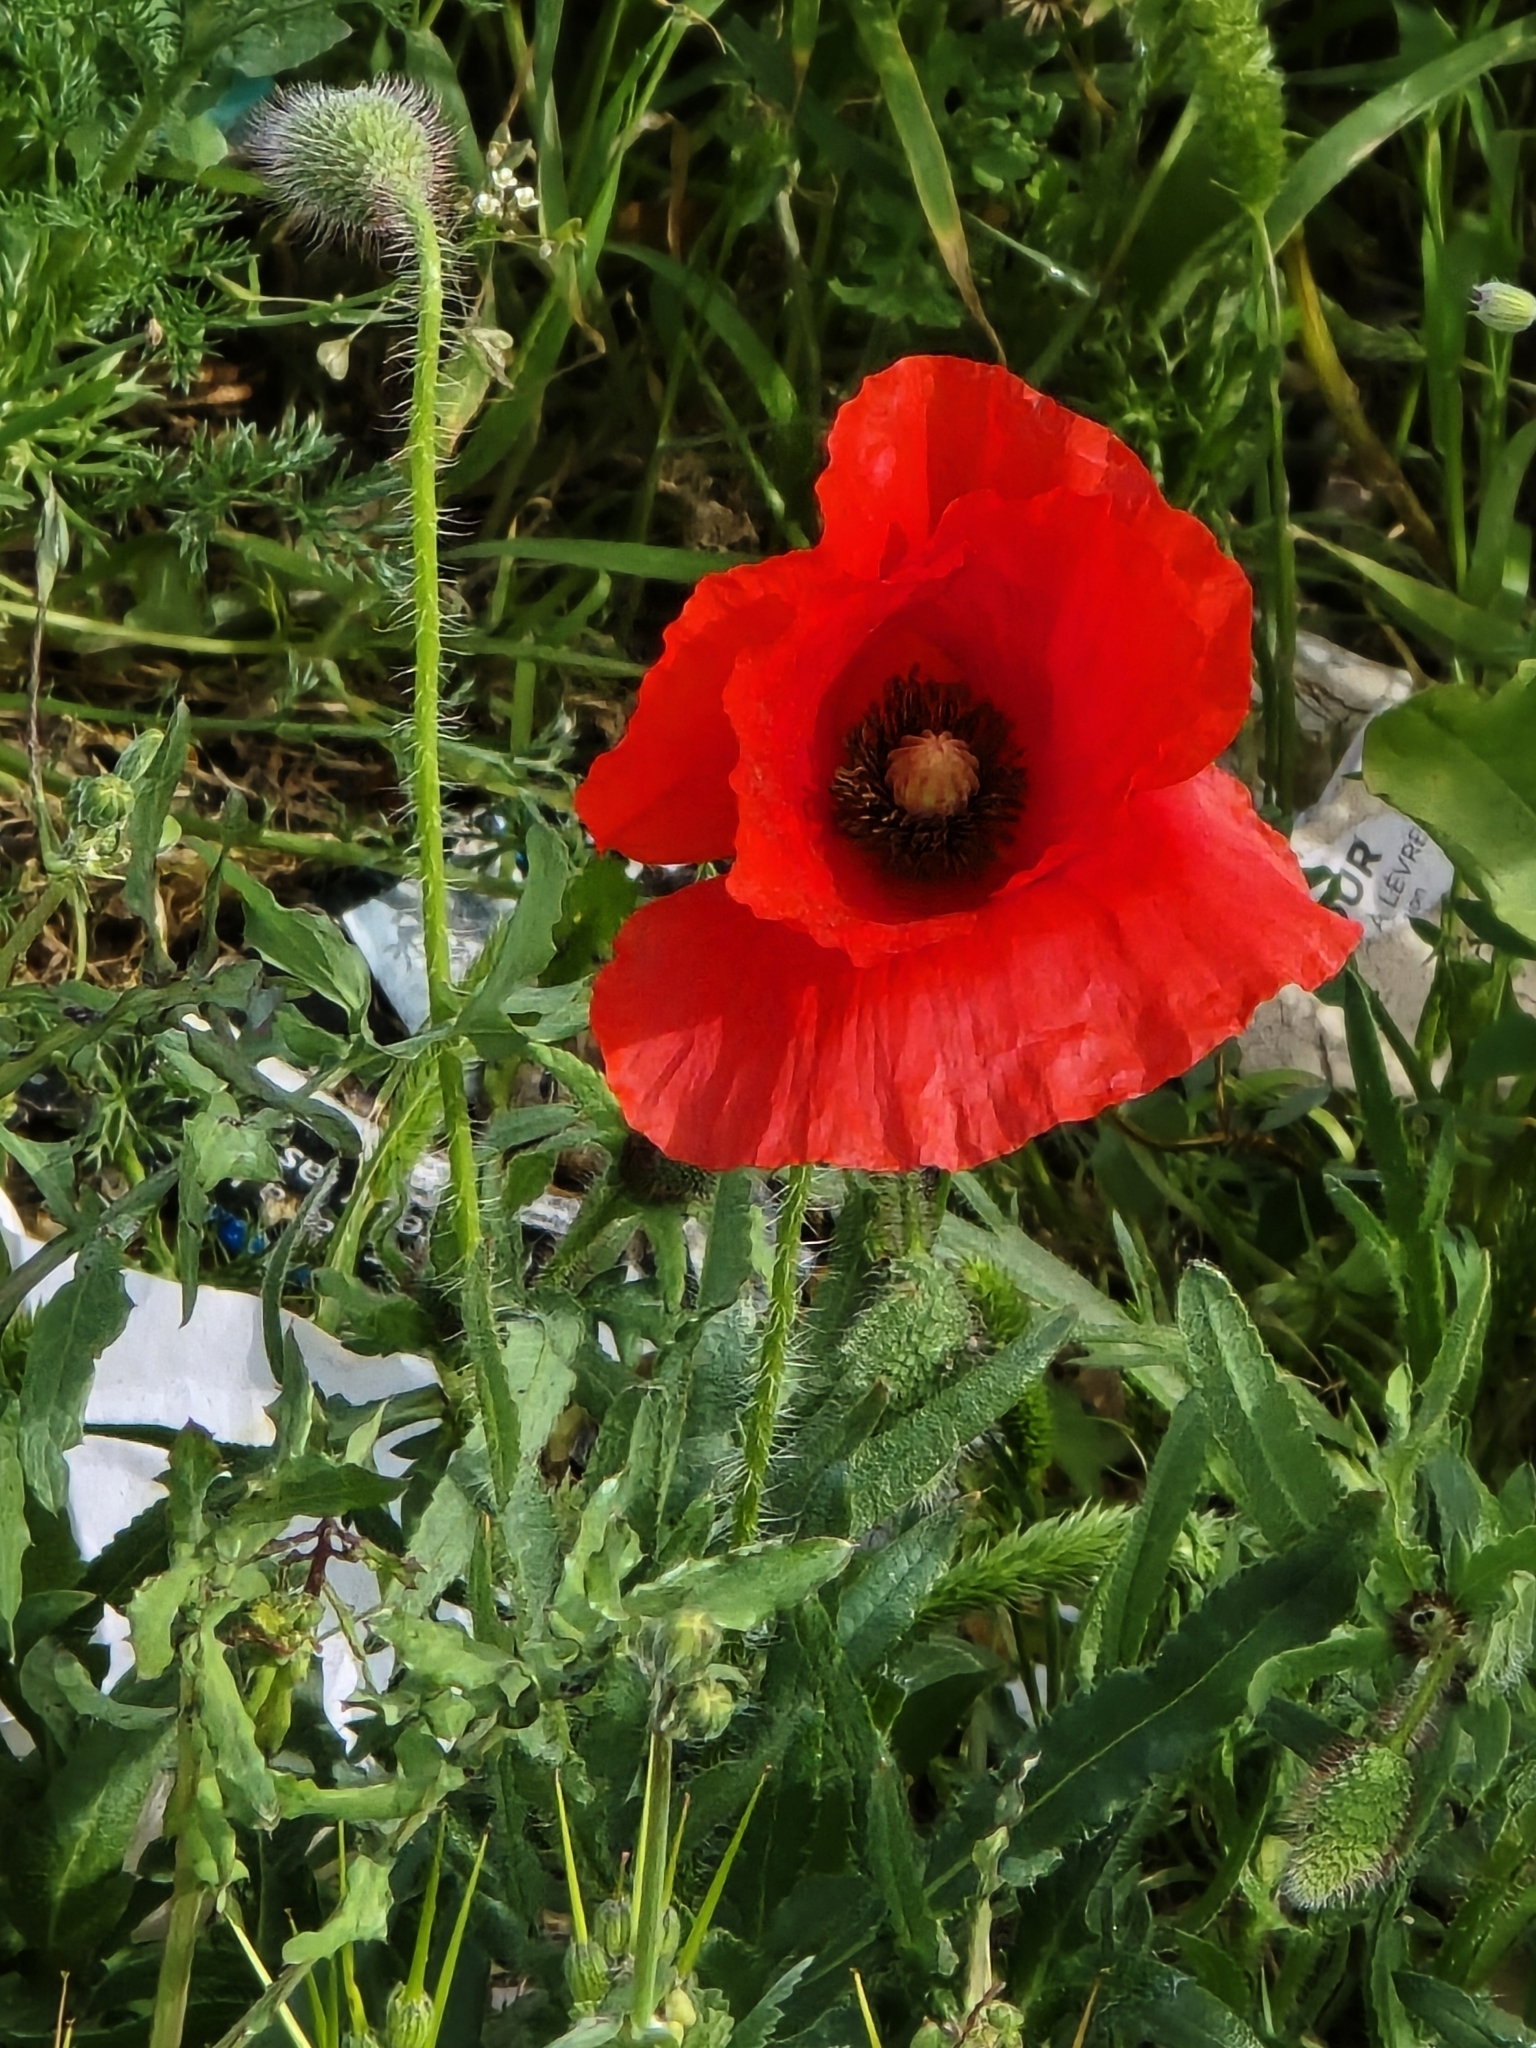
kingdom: Plantae
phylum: Tracheophyta
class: Magnoliopsida
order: Ranunculales
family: Papaveraceae
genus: Papaver
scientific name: Papaver rhoeas
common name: Corn poppy
